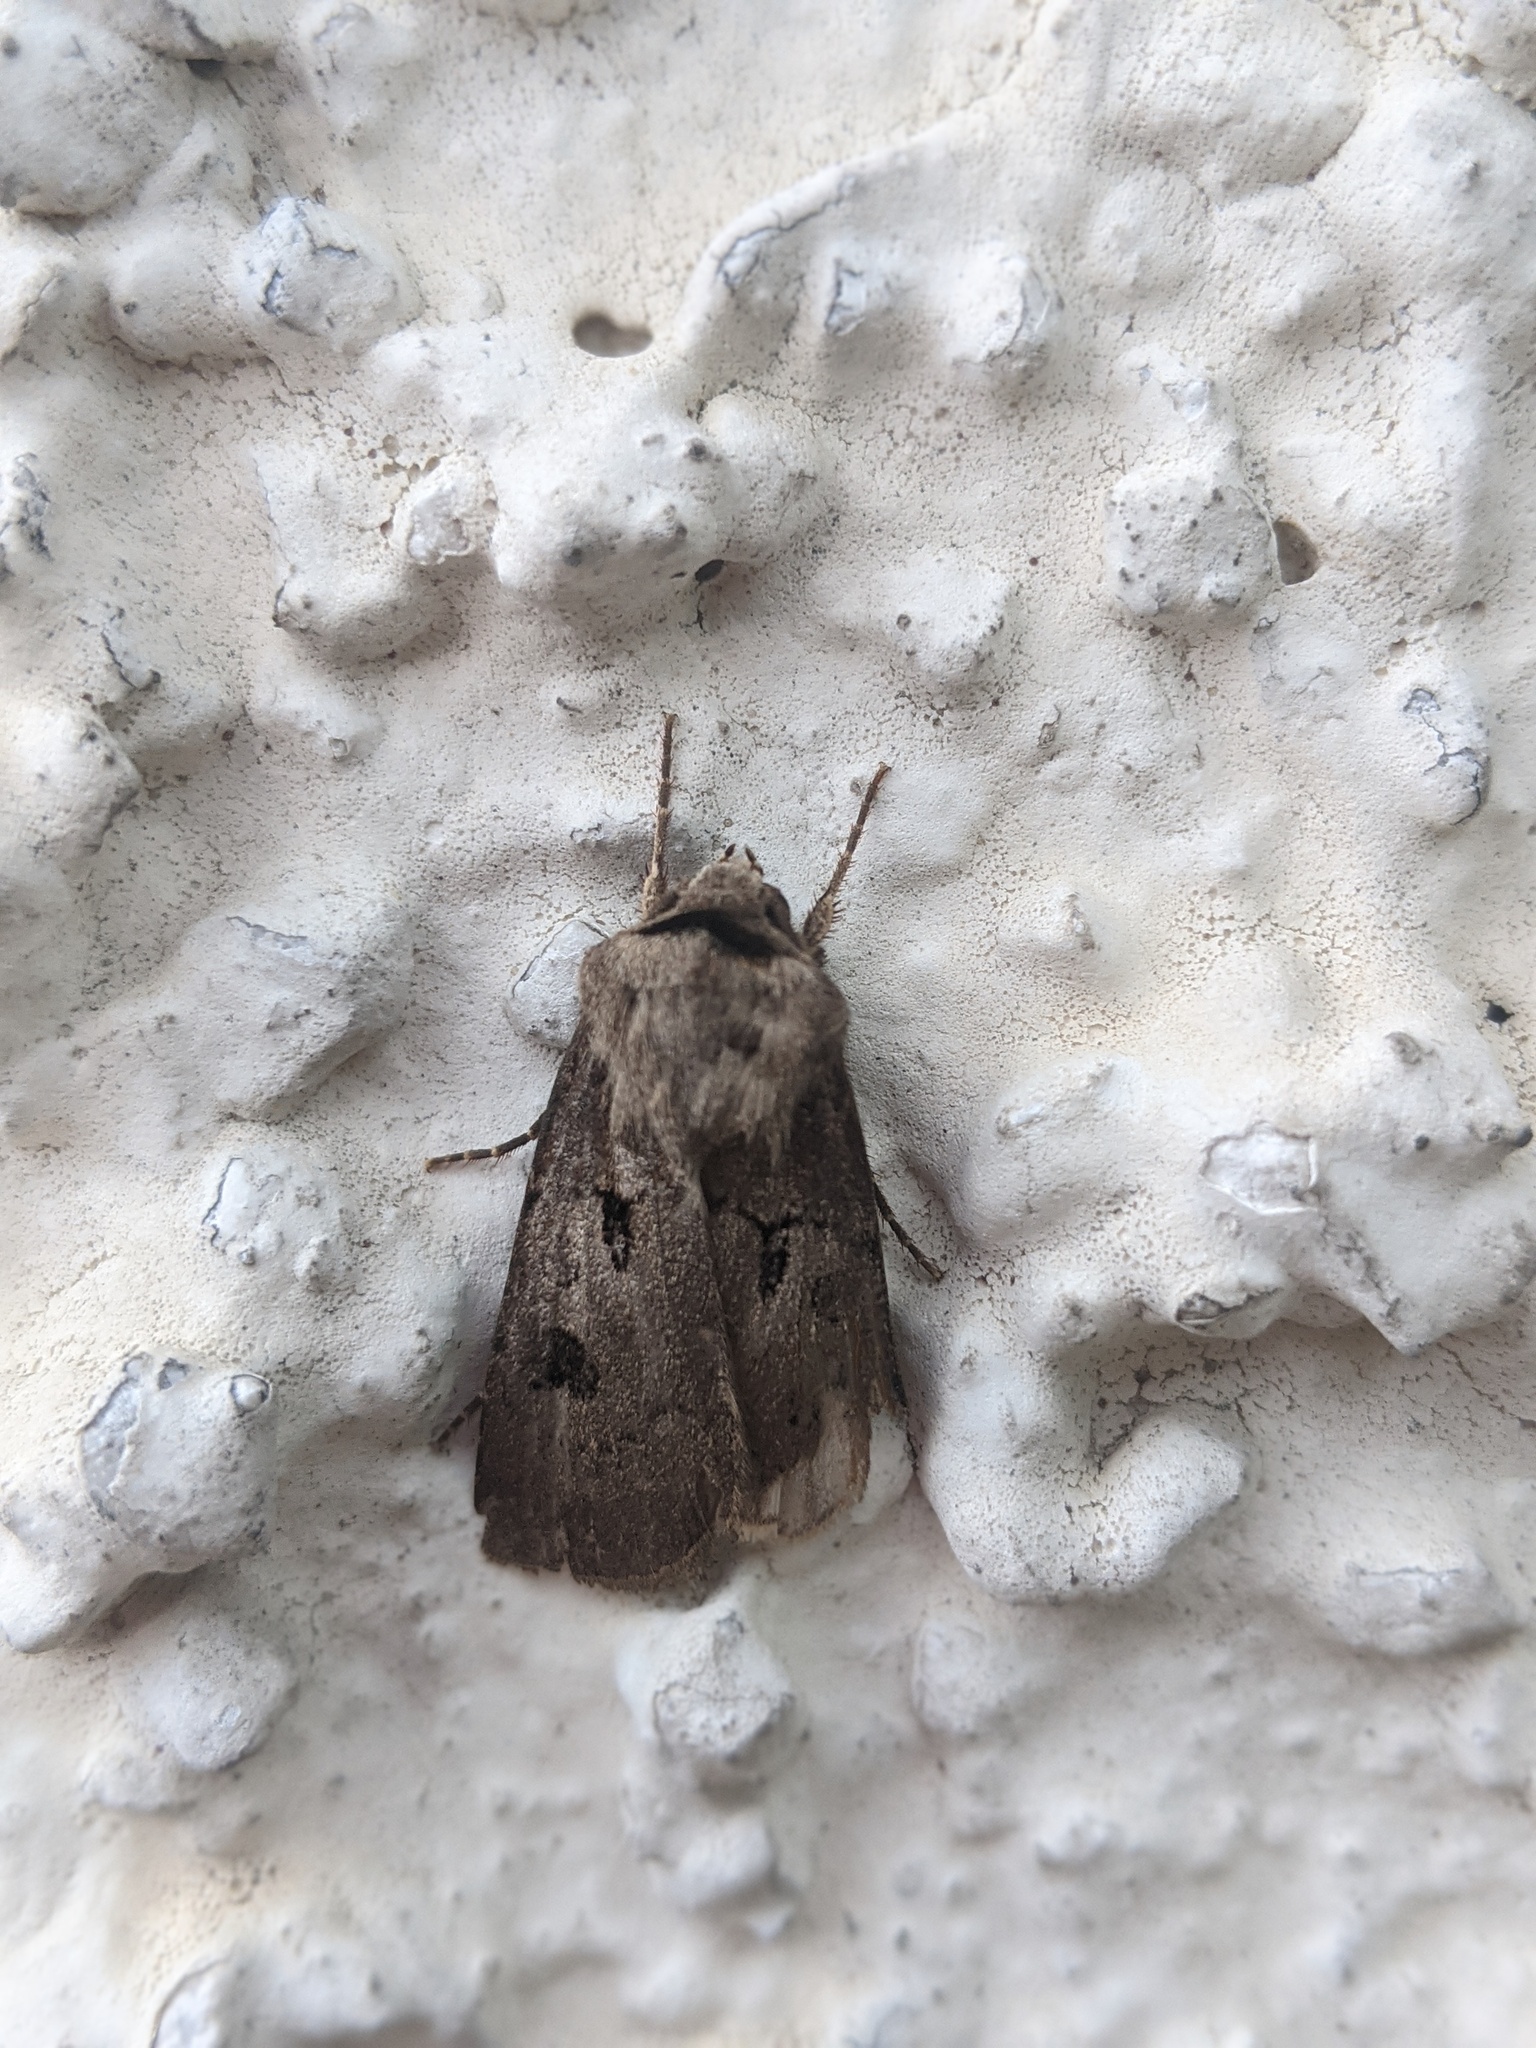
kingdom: Animalia
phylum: Arthropoda
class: Insecta
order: Lepidoptera
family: Noctuidae
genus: Agrotis
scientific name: Agrotis exclamationis
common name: Heart and dart
